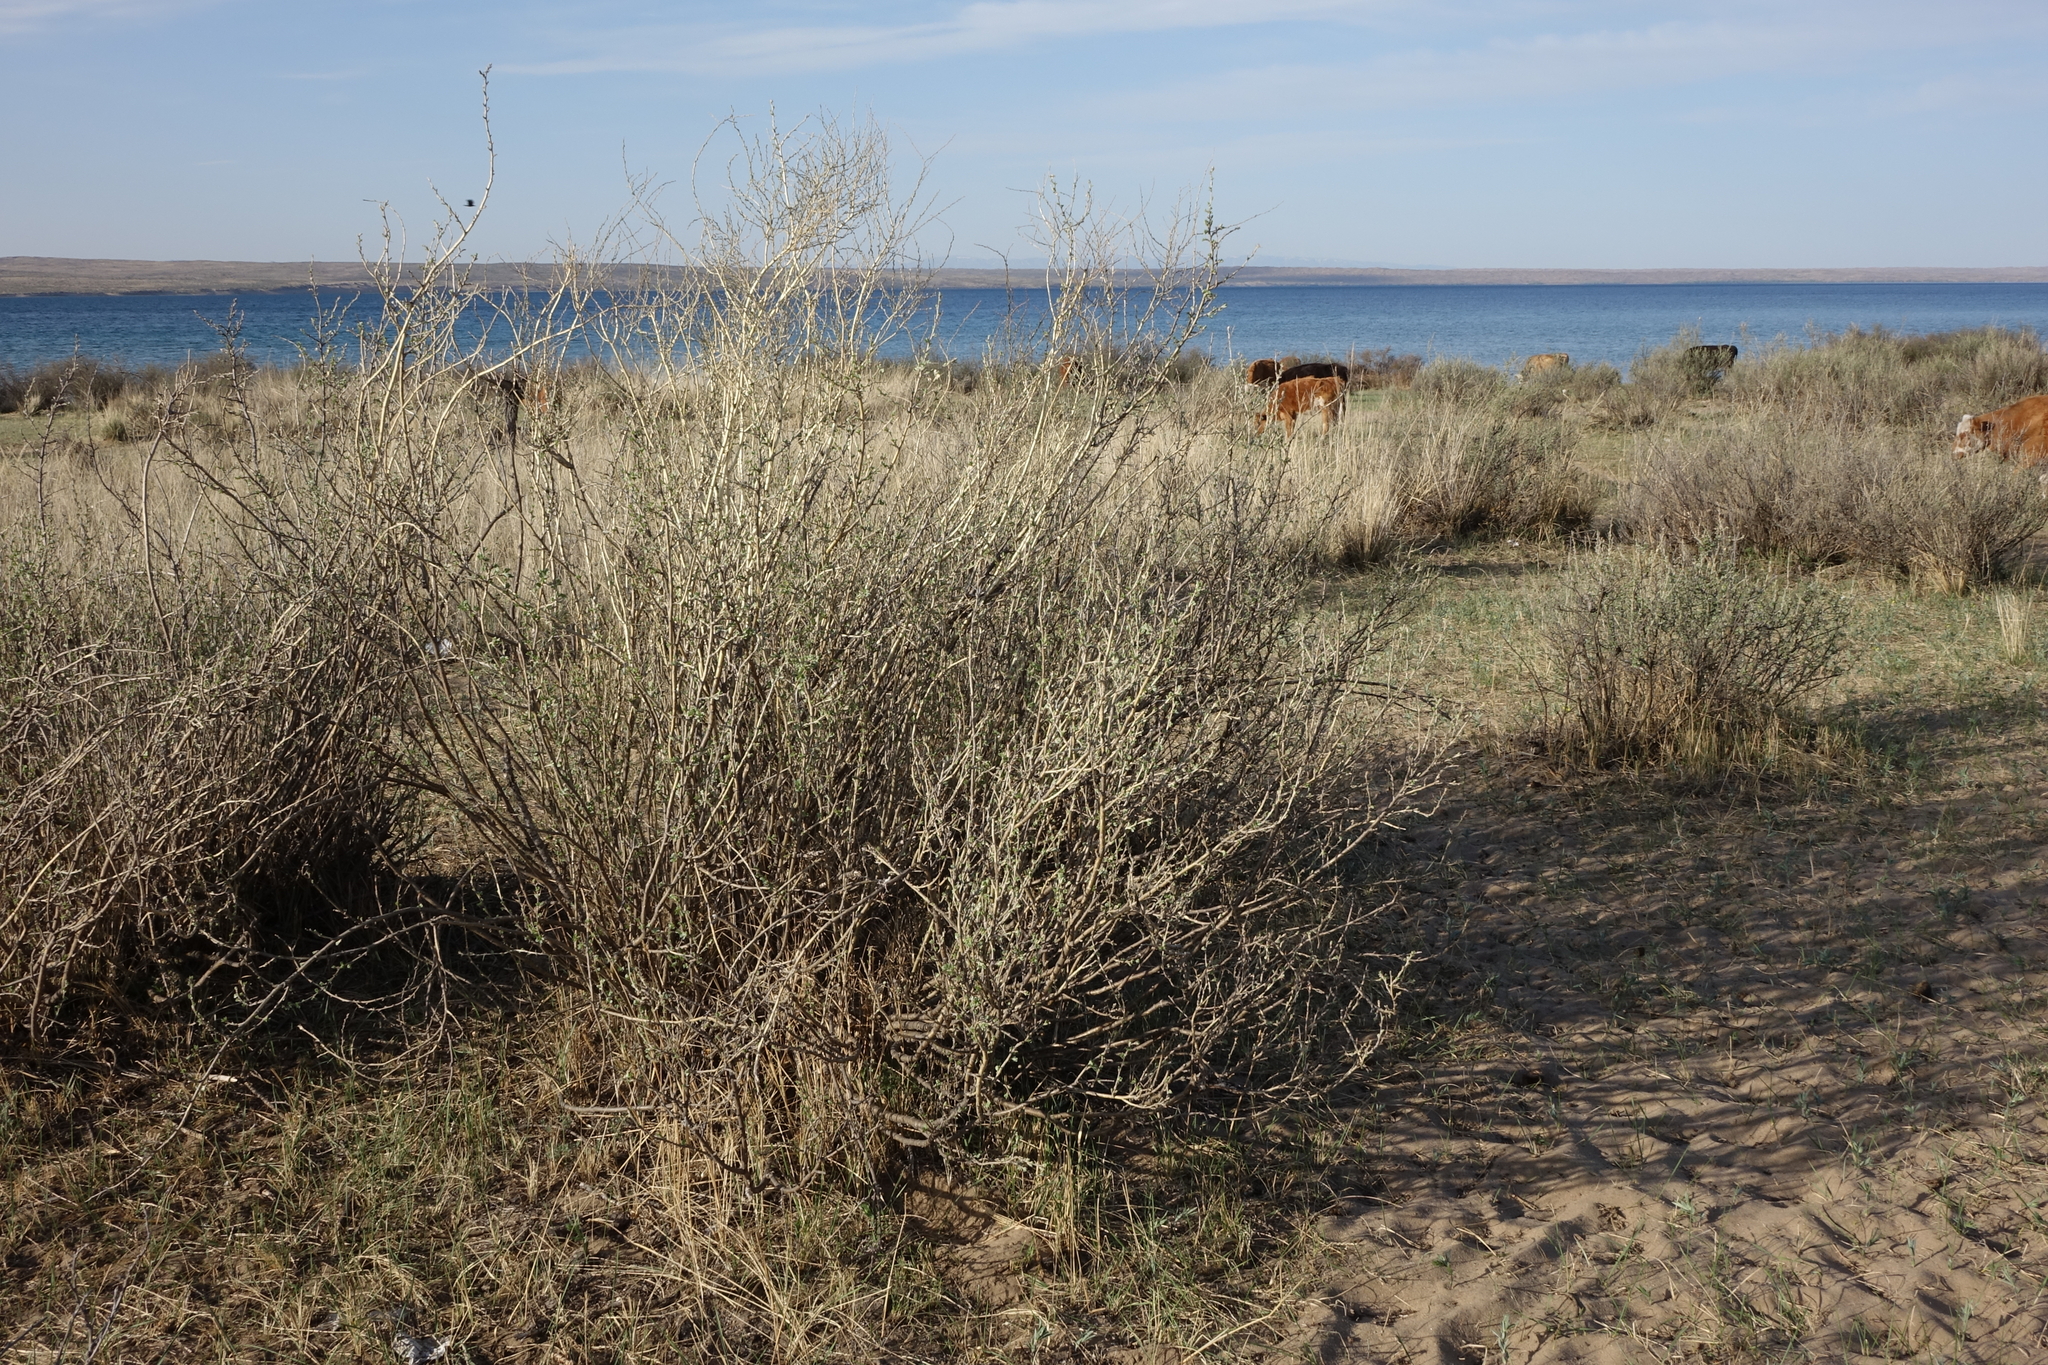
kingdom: Plantae
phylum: Tracheophyta
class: Magnoliopsida
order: Fabales
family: Fabaceae
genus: Caragana
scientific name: Caragana pygmaea
